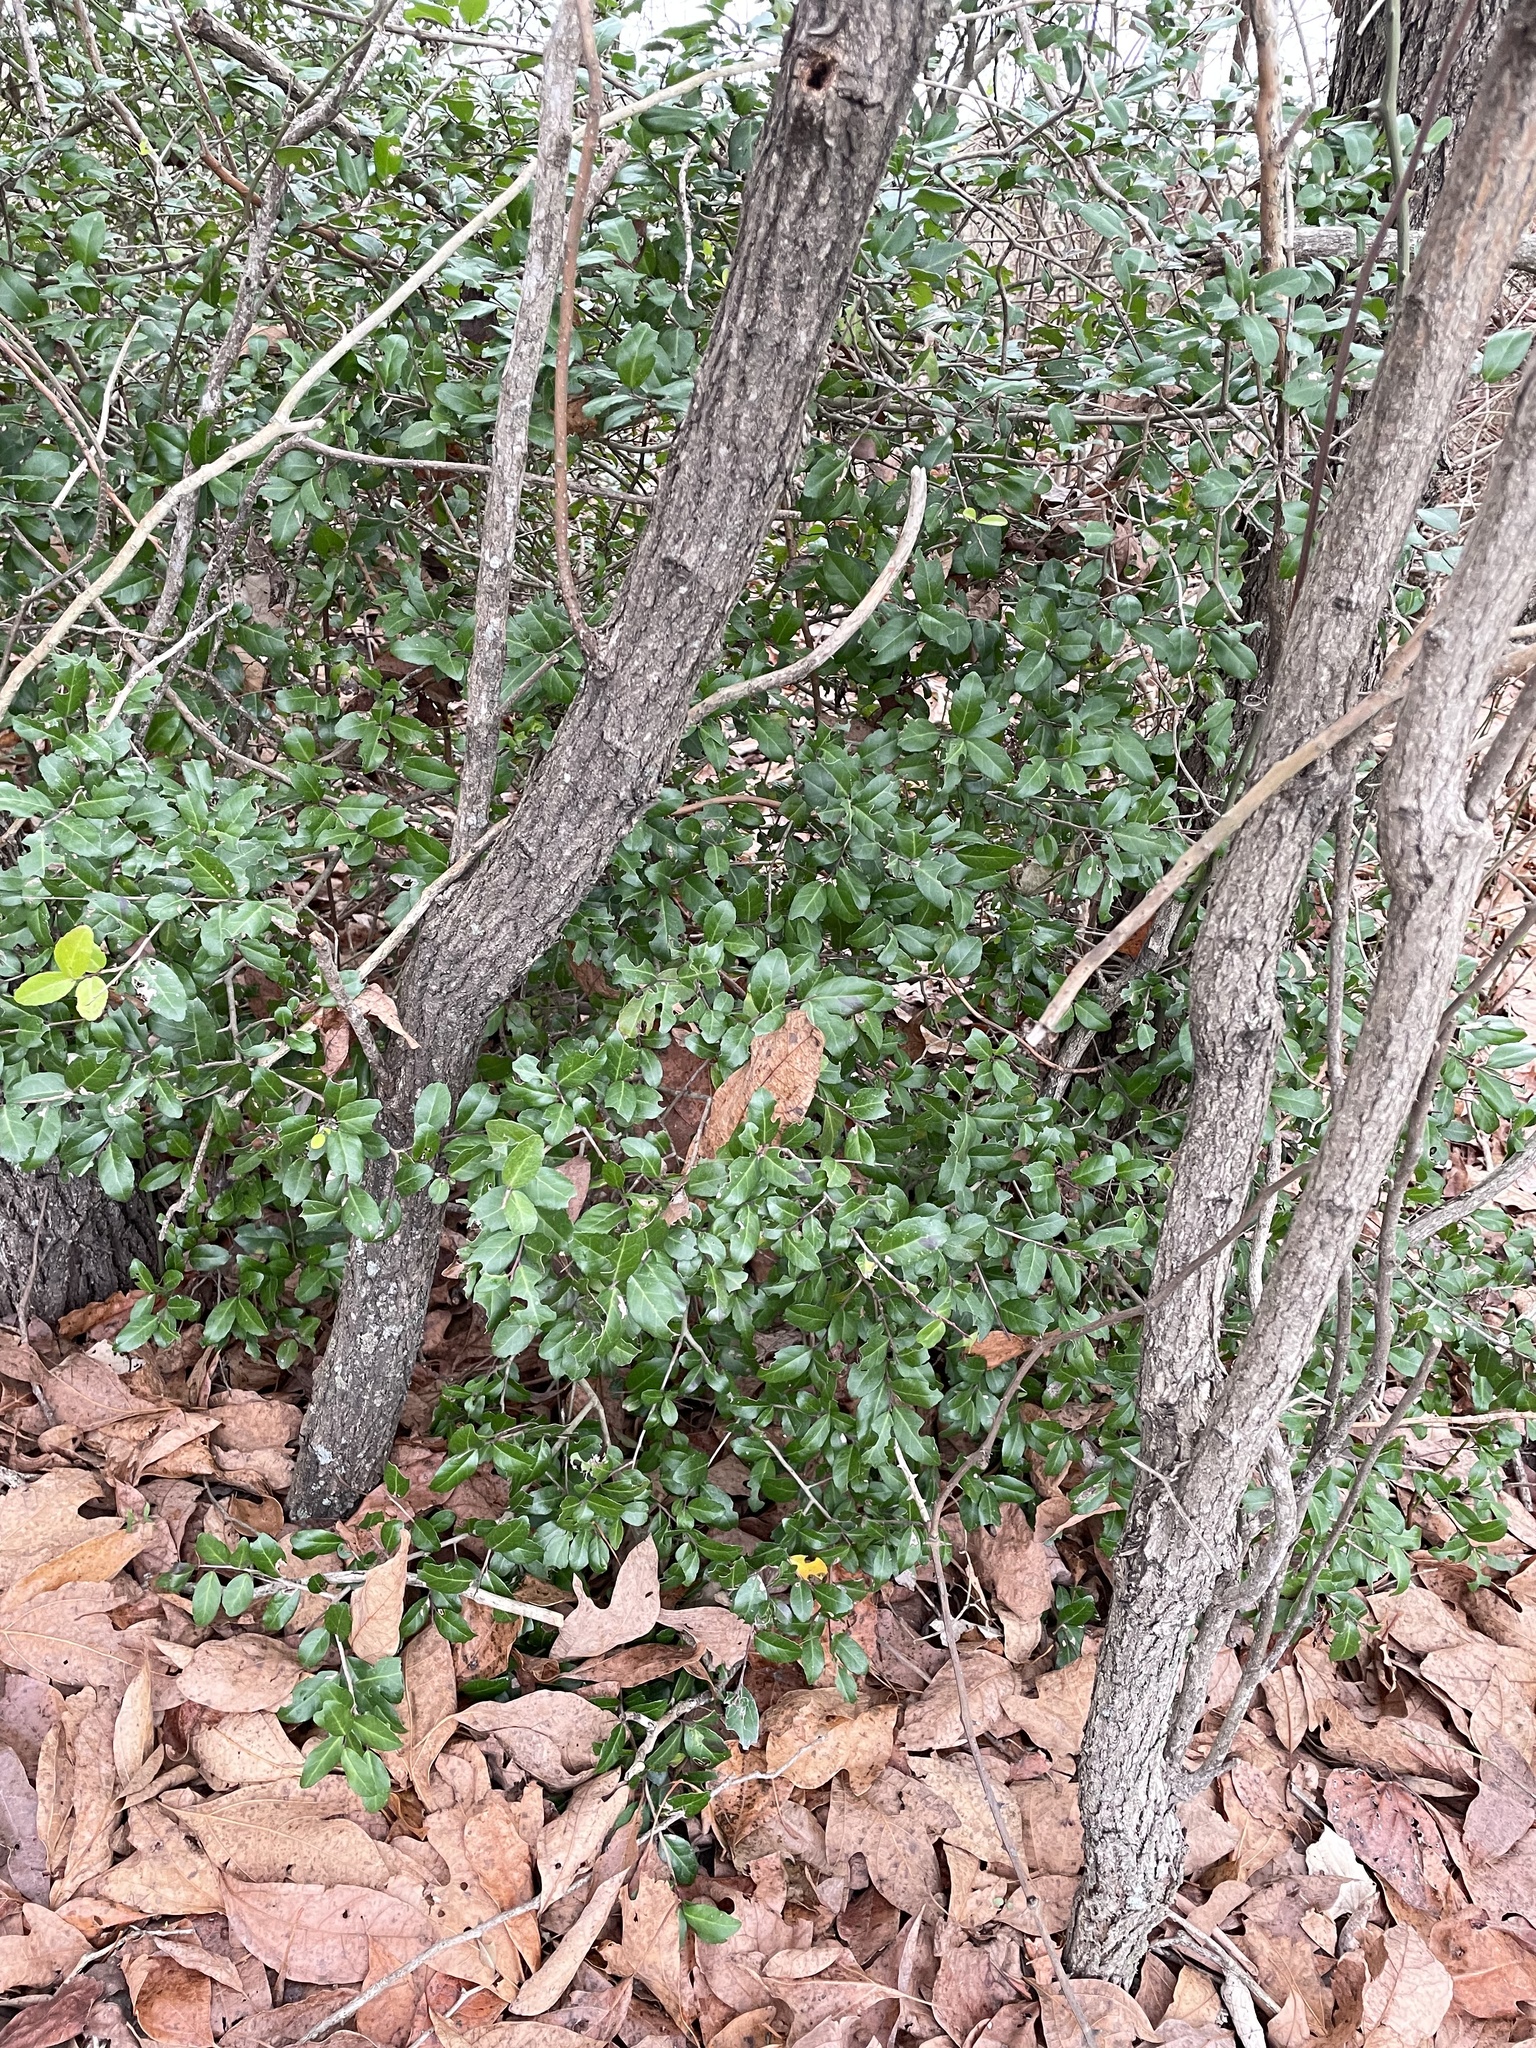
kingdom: Plantae
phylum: Tracheophyta
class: Magnoliopsida
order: Aquifoliales
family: Aquifoliaceae
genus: Ilex
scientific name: Ilex vomitoria
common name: Yaupon holly
